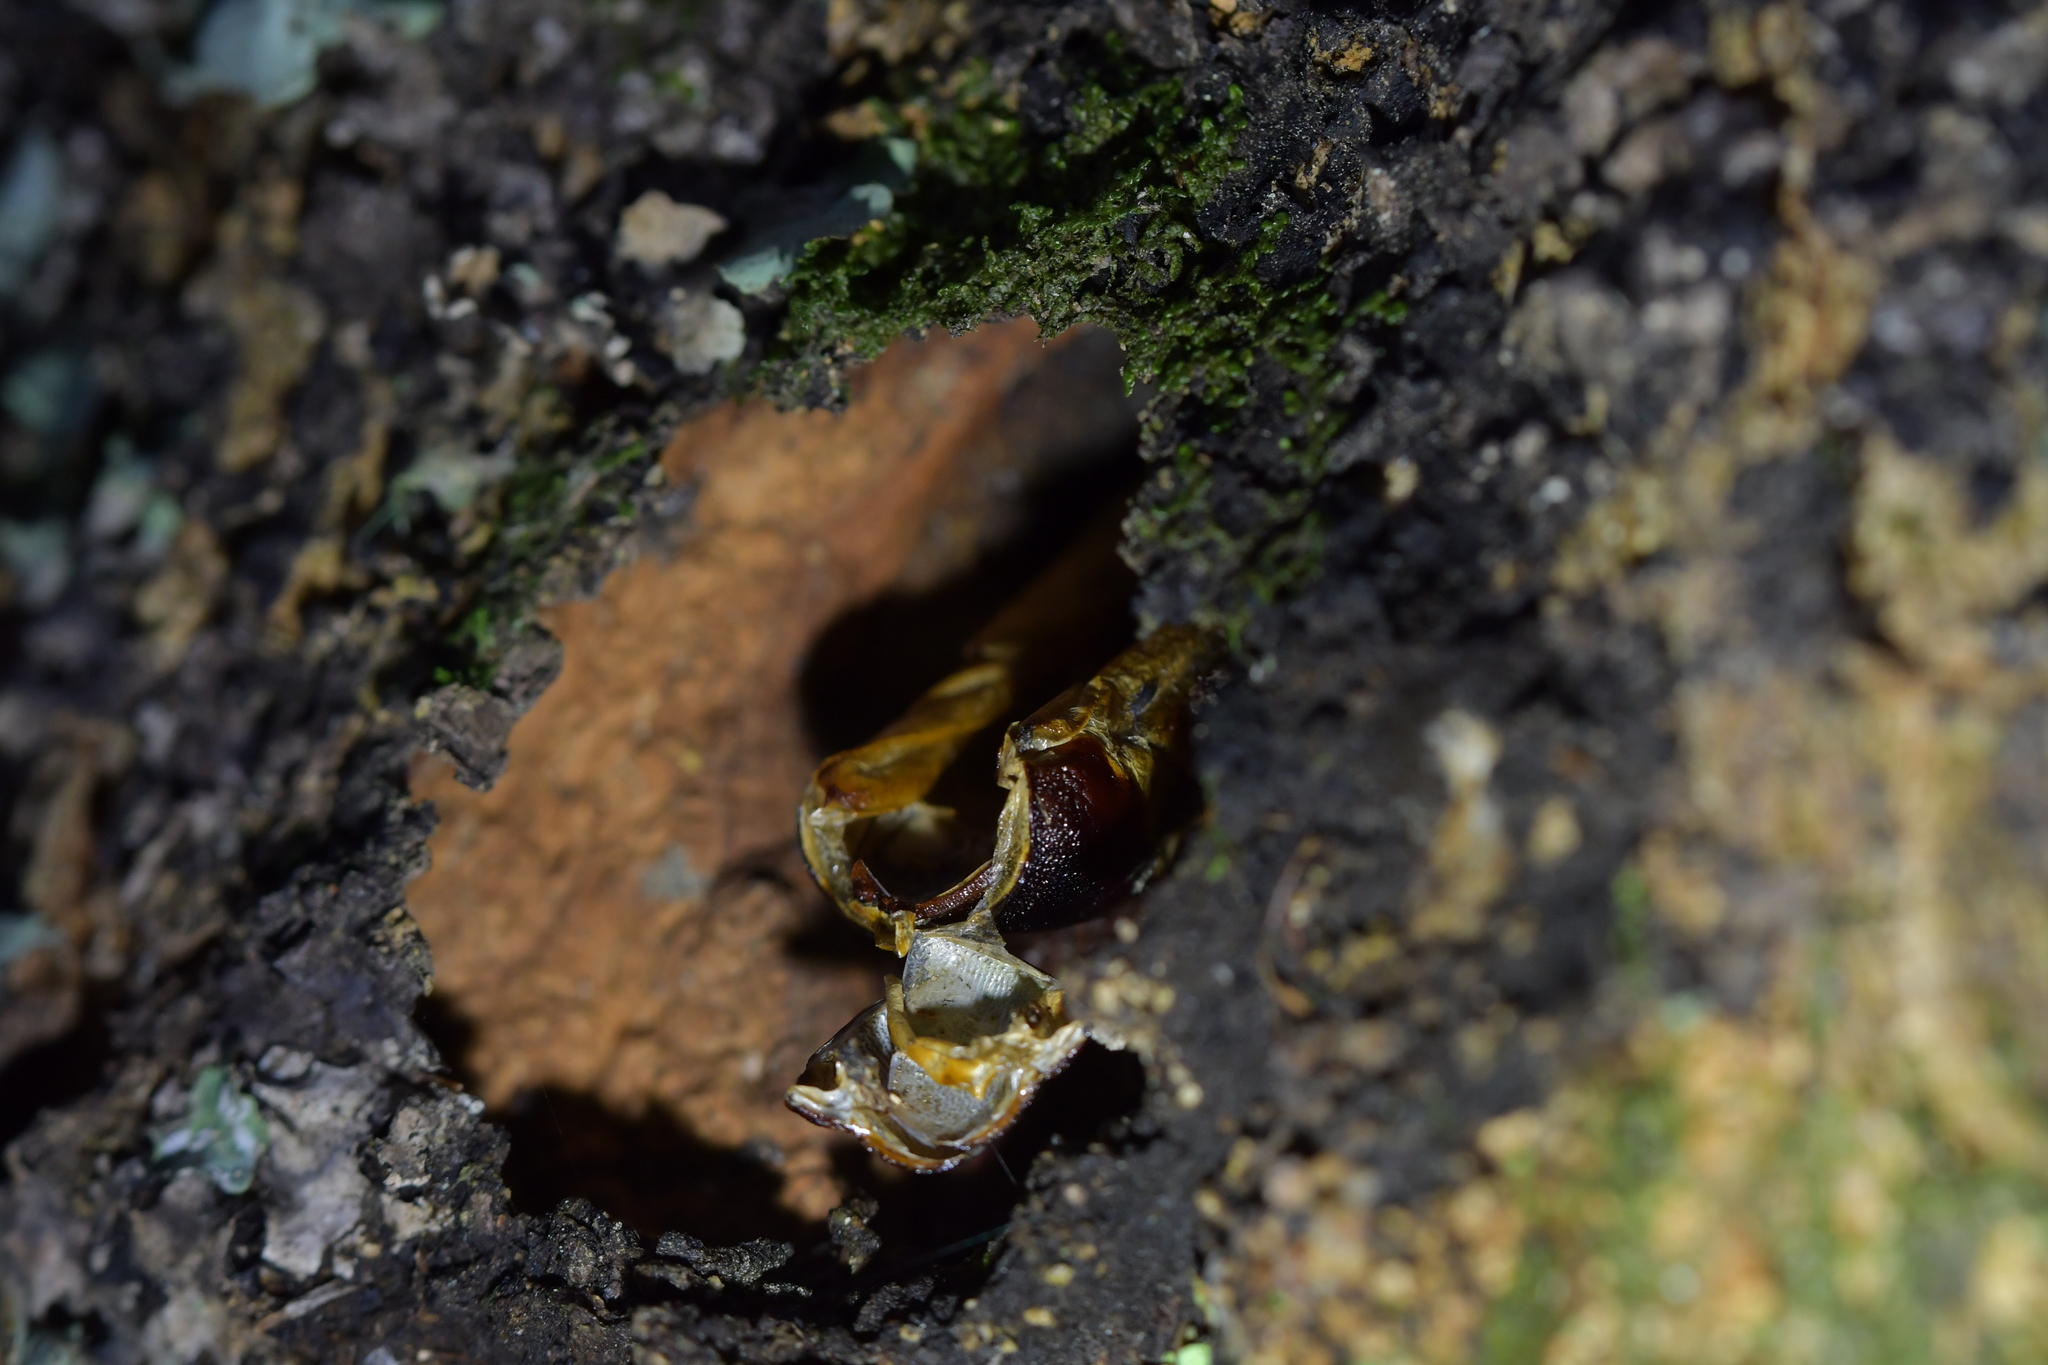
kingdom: Animalia
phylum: Arthropoda
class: Insecta
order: Lepidoptera
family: Hepialidae
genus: Aenetus
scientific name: Aenetus virescens
